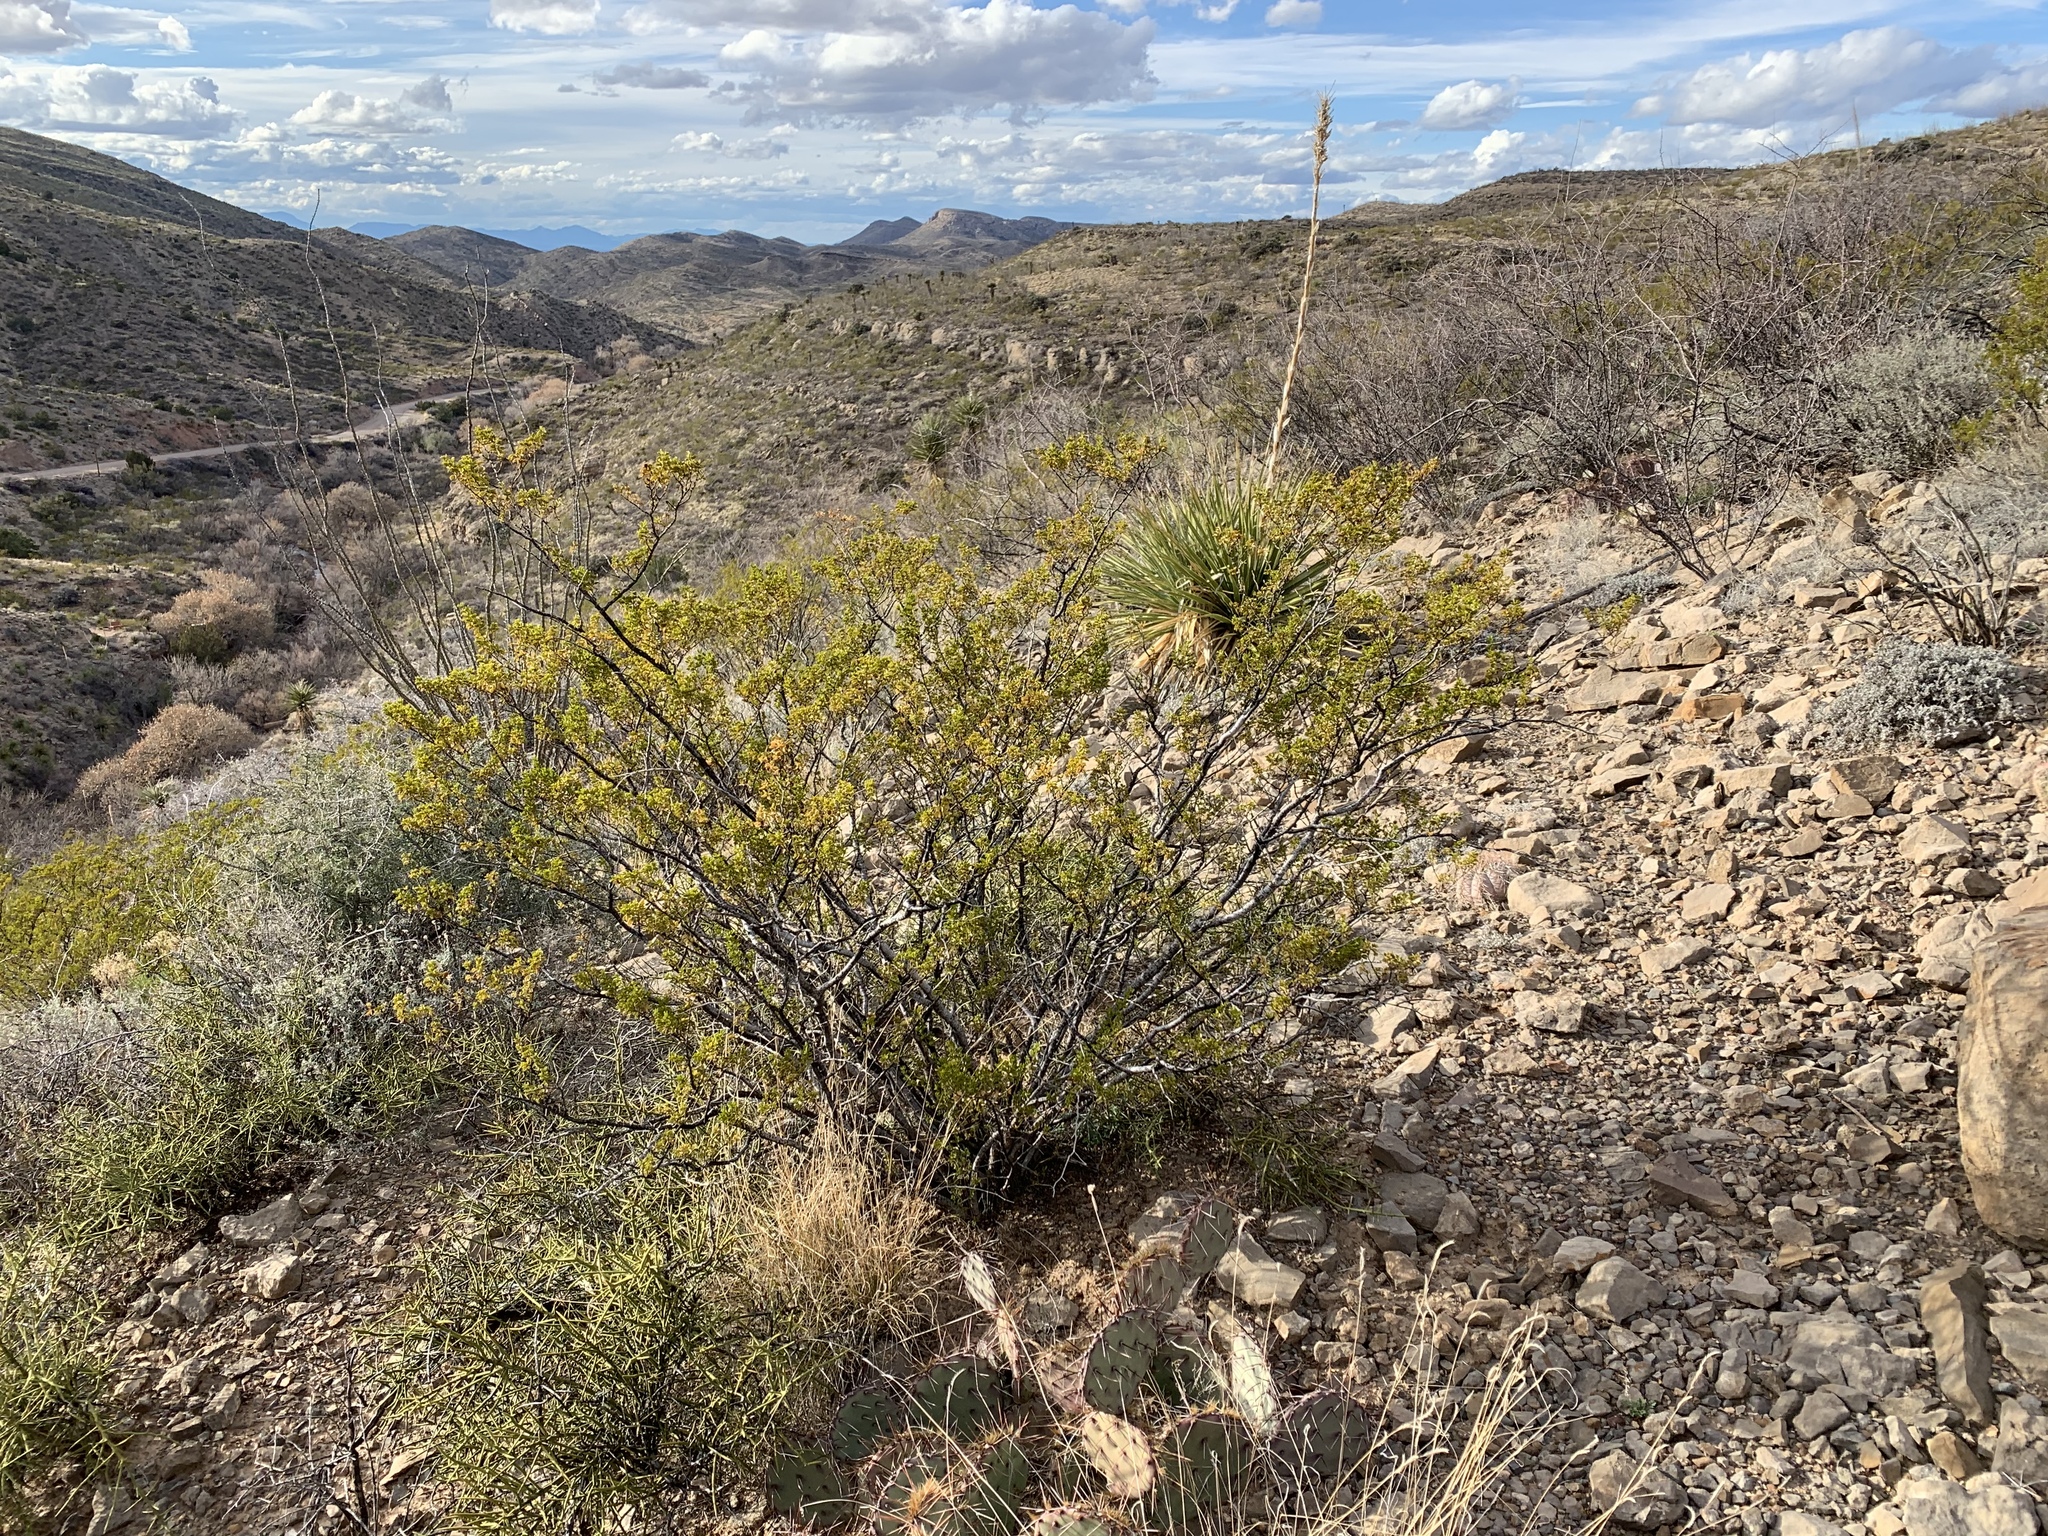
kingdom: Plantae
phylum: Tracheophyta
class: Magnoliopsida
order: Zygophyllales
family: Zygophyllaceae
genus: Larrea
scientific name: Larrea tridentata
